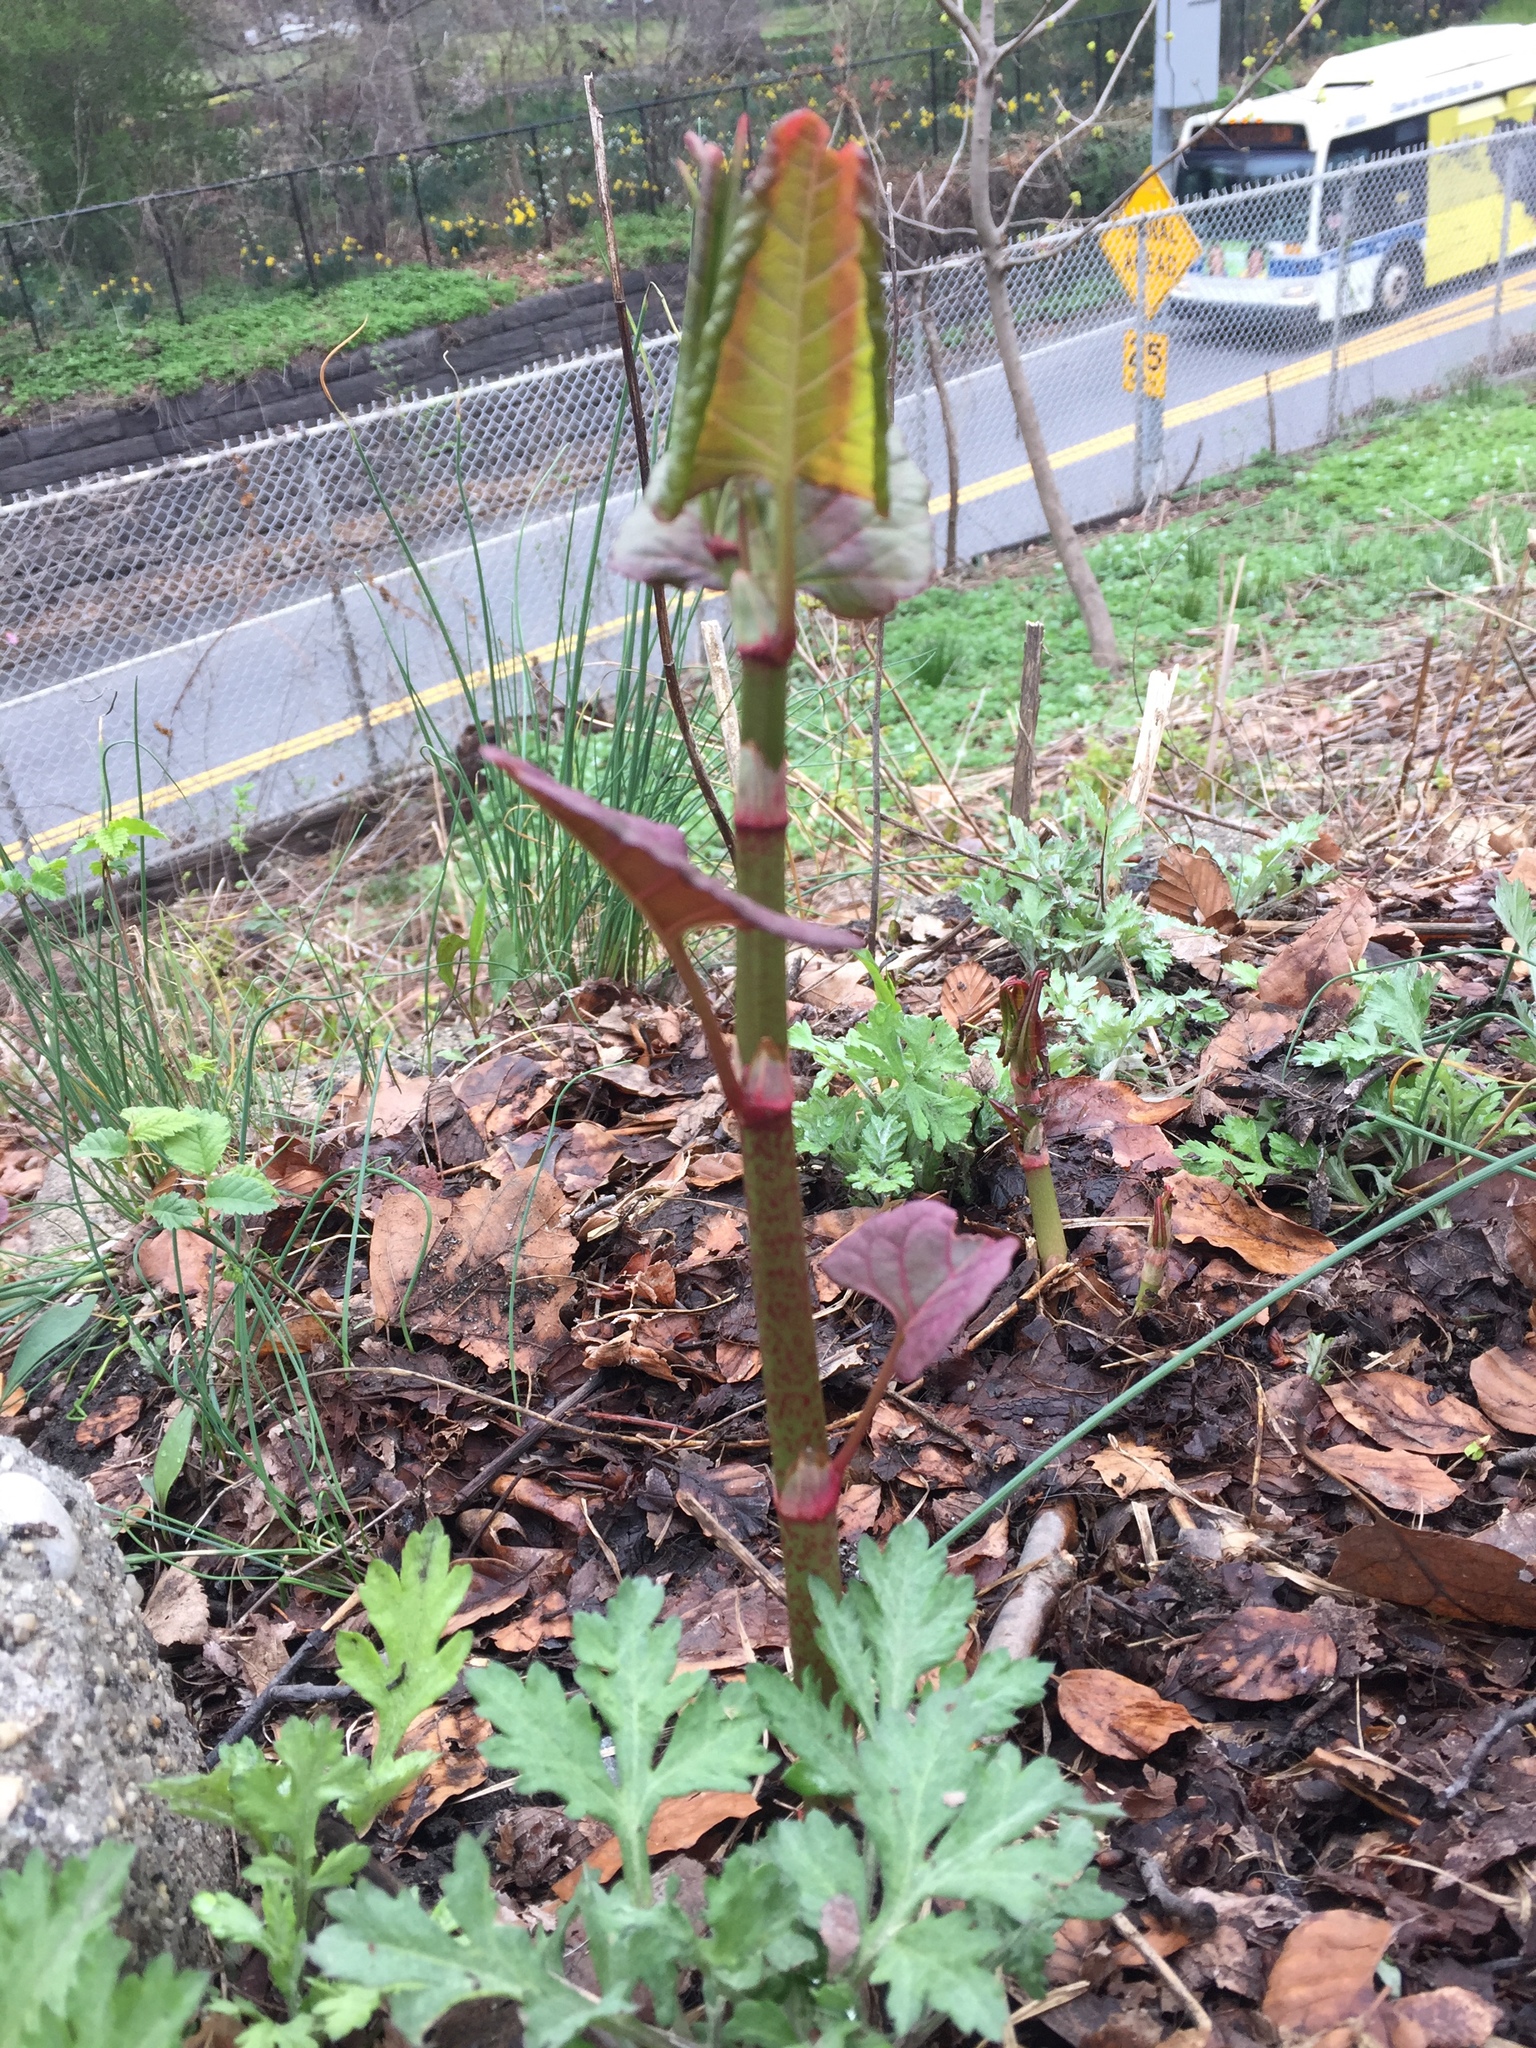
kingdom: Plantae
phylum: Tracheophyta
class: Magnoliopsida
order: Caryophyllales
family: Polygonaceae
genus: Reynoutria
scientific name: Reynoutria japonica
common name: Japanese knotweed
